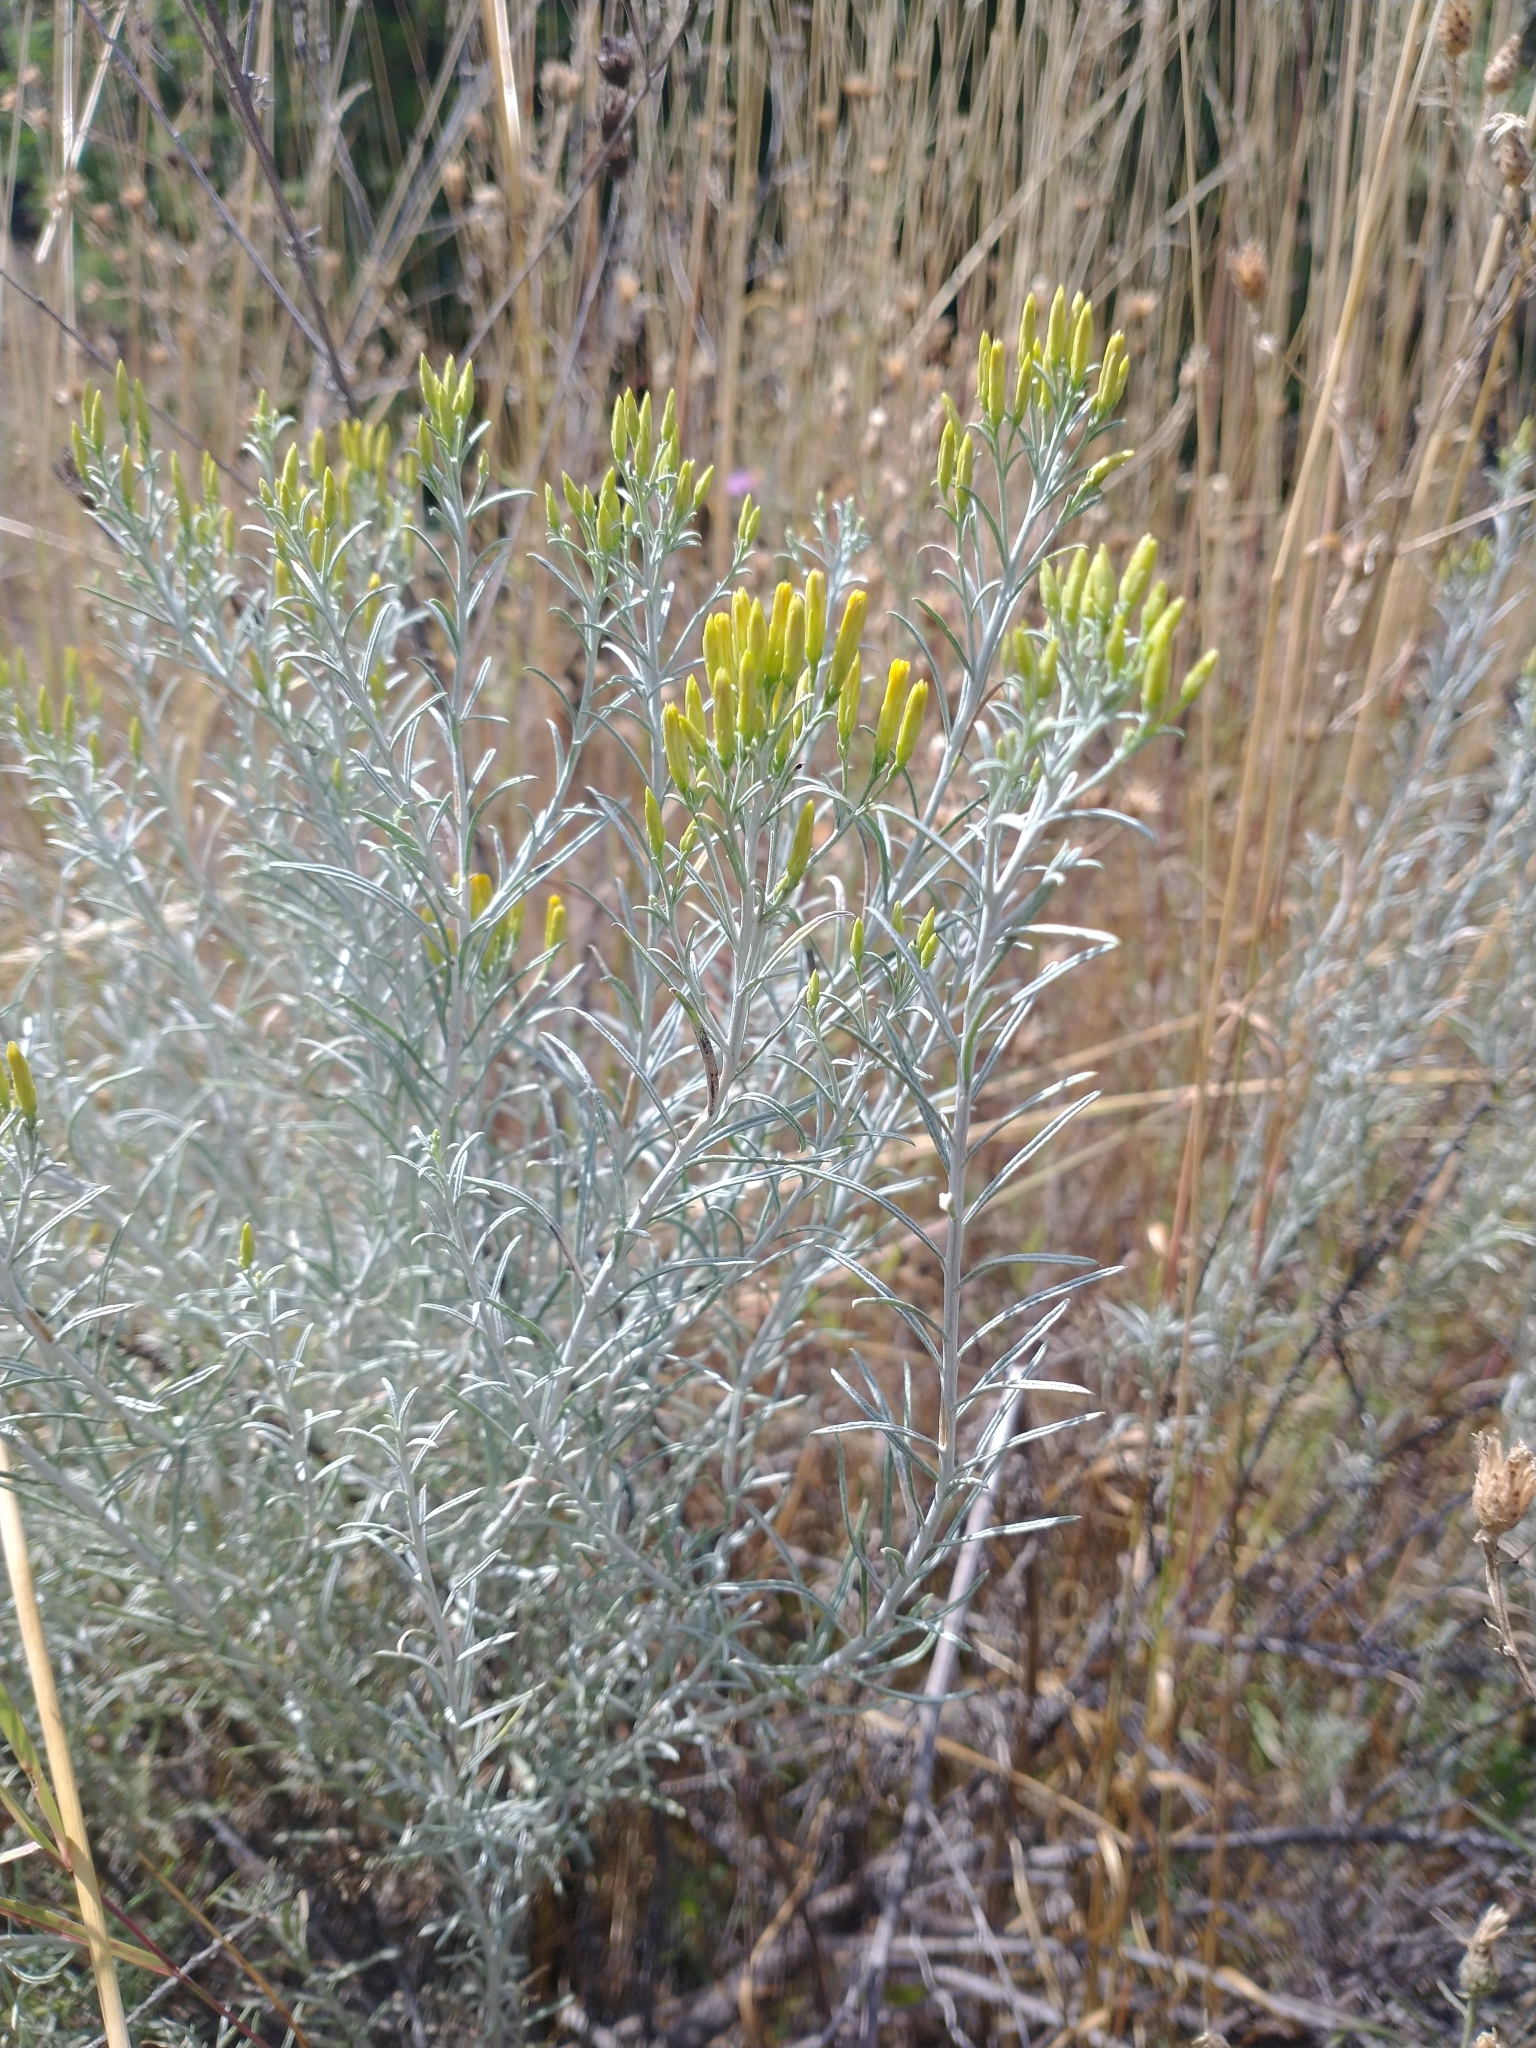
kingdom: Plantae
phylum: Tracheophyta
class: Magnoliopsida
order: Asterales
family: Asteraceae
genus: Ericameria
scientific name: Ericameria nauseosa
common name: Rubber rabbitbrush
